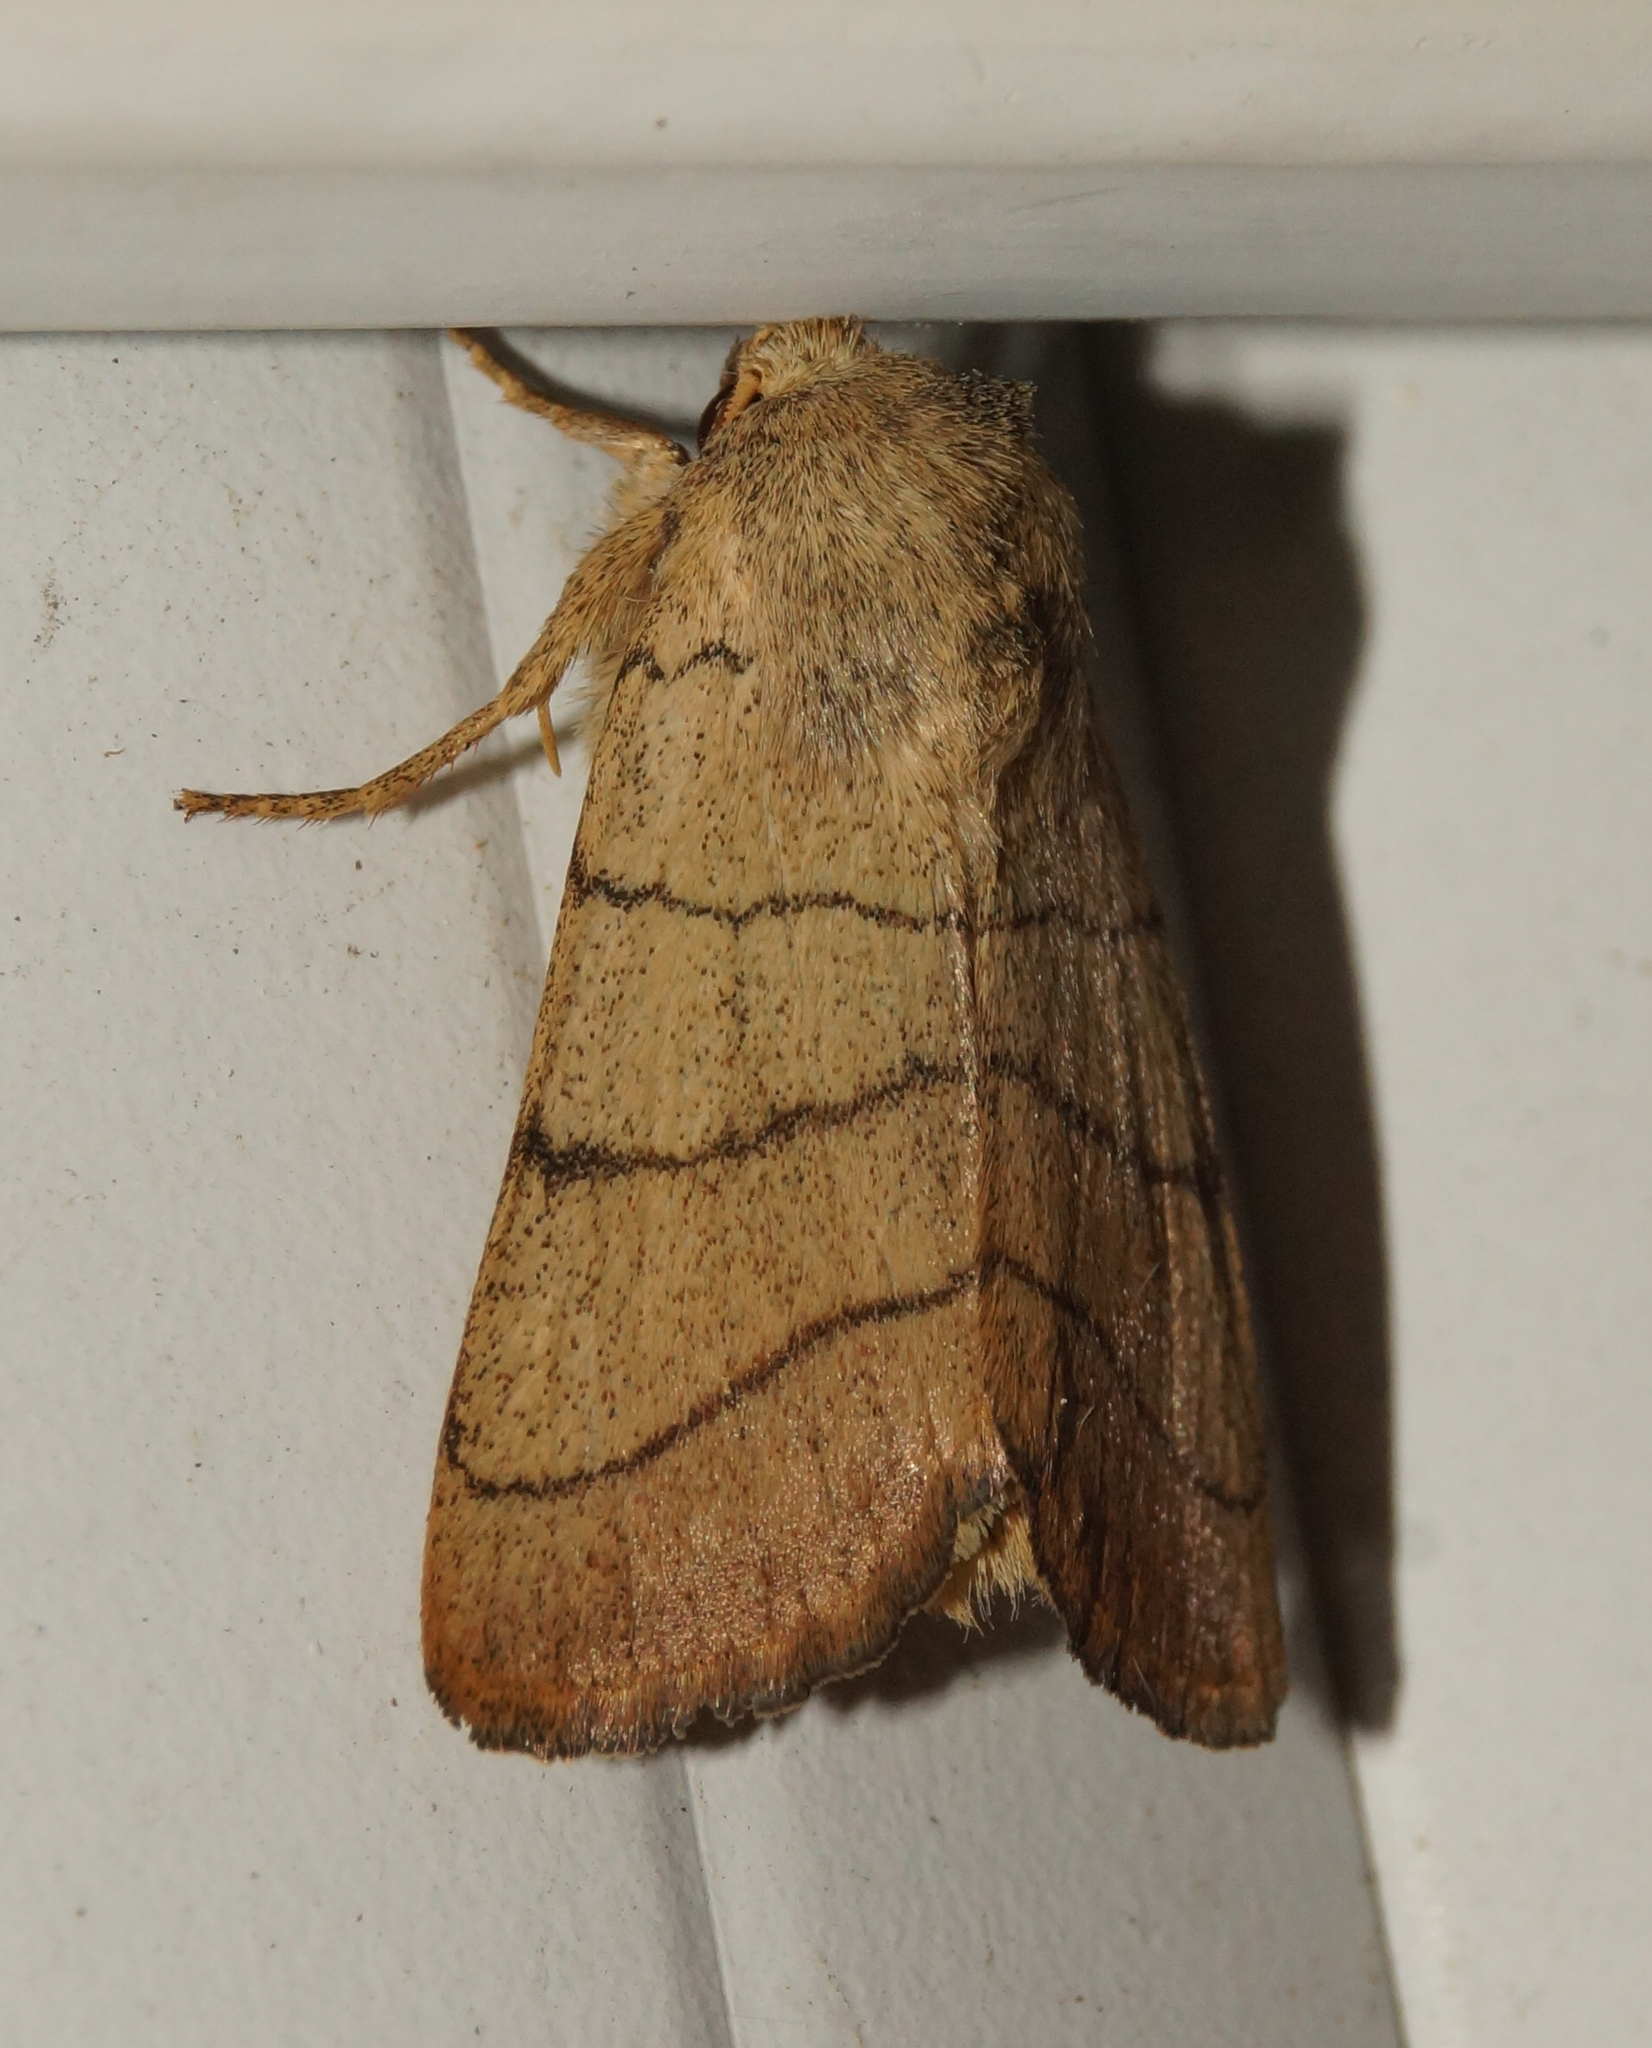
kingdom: Animalia
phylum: Arthropoda
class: Insecta
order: Lepidoptera
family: Noctuidae
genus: Charanyca
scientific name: Charanyca trigrammica
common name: Treble lines
